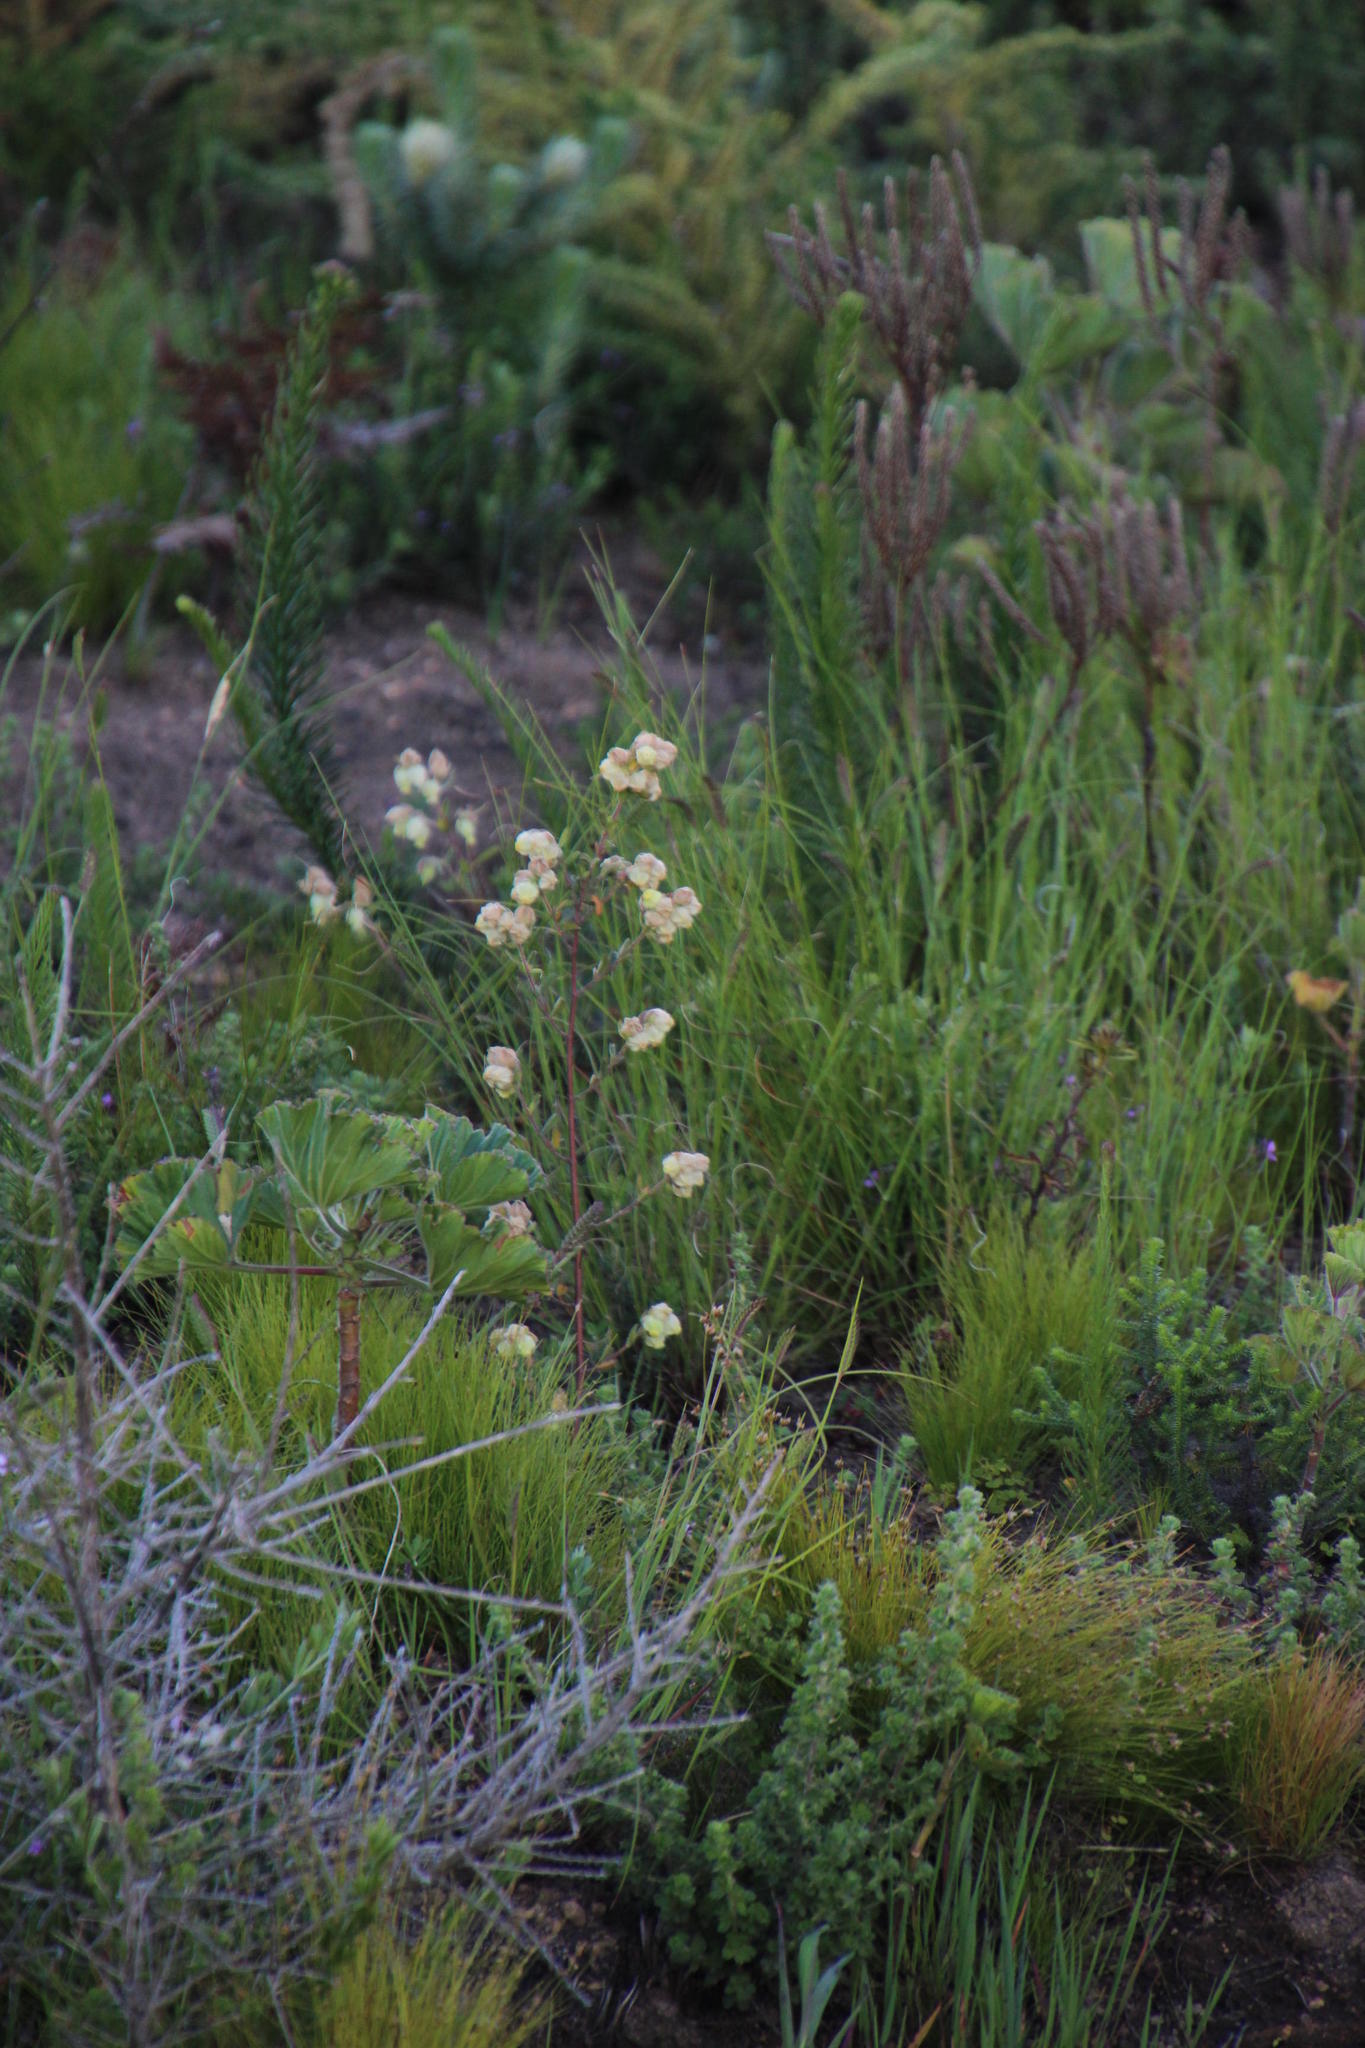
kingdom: Plantae
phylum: Tracheophyta
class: Magnoliopsida
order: Malvales
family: Malvaceae
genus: Hermannia
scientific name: Hermannia hyssopifolia
